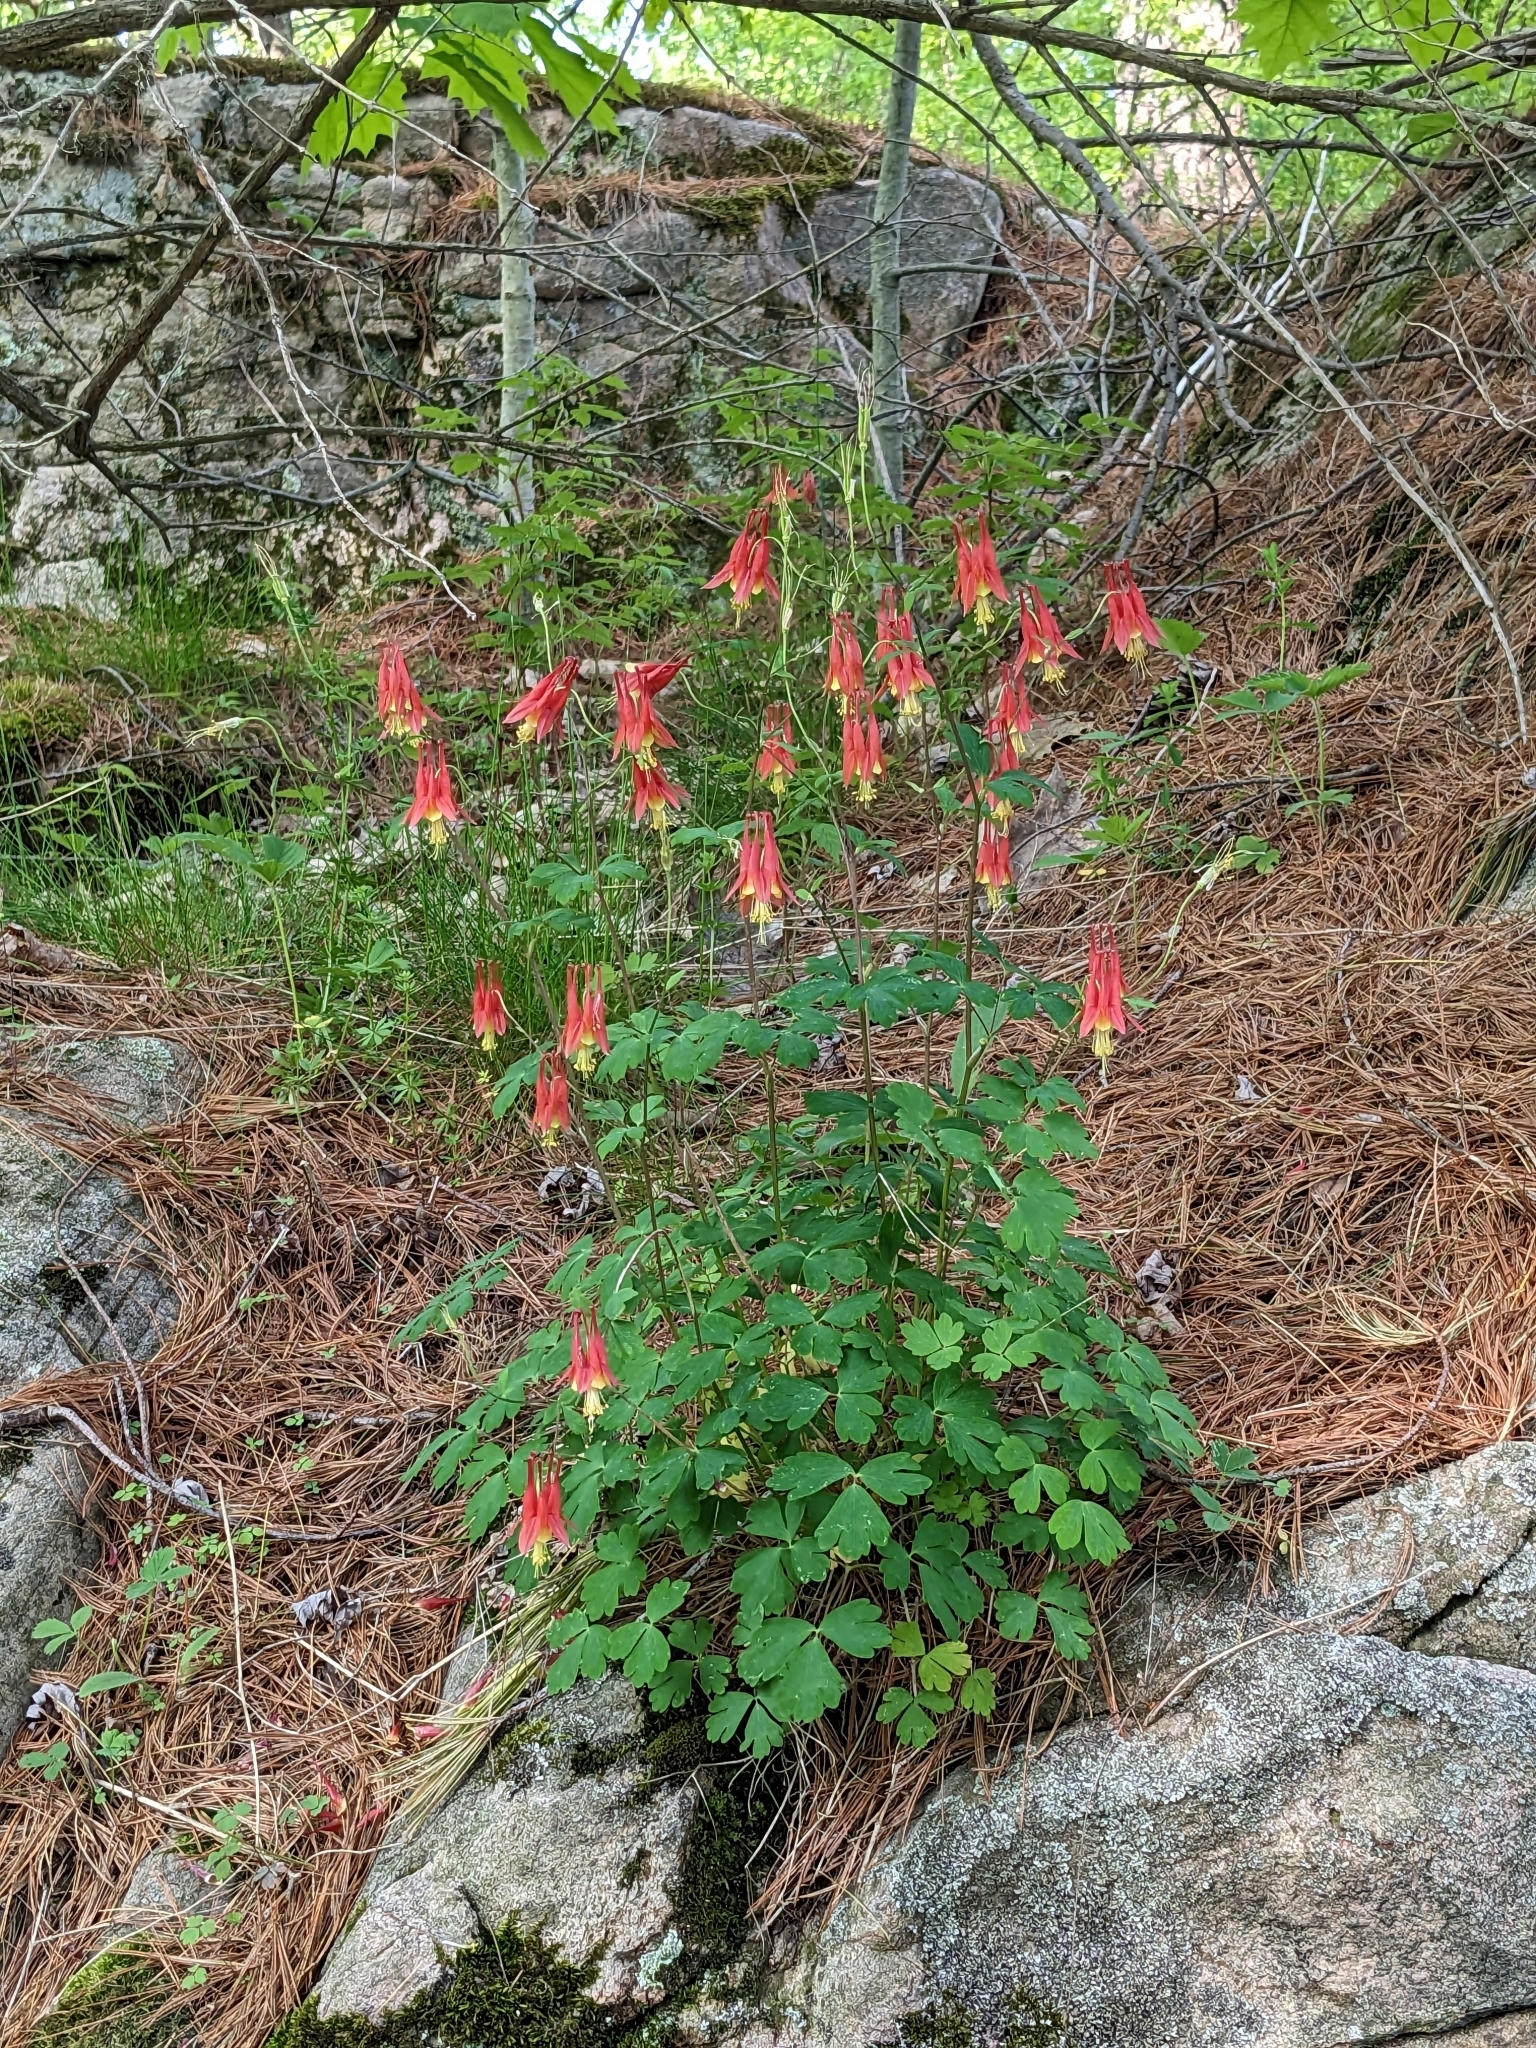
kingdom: Plantae
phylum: Tracheophyta
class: Magnoliopsida
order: Ranunculales
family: Ranunculaceae
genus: Aquilegia
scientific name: Aquilegia canadensis
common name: American columbine
